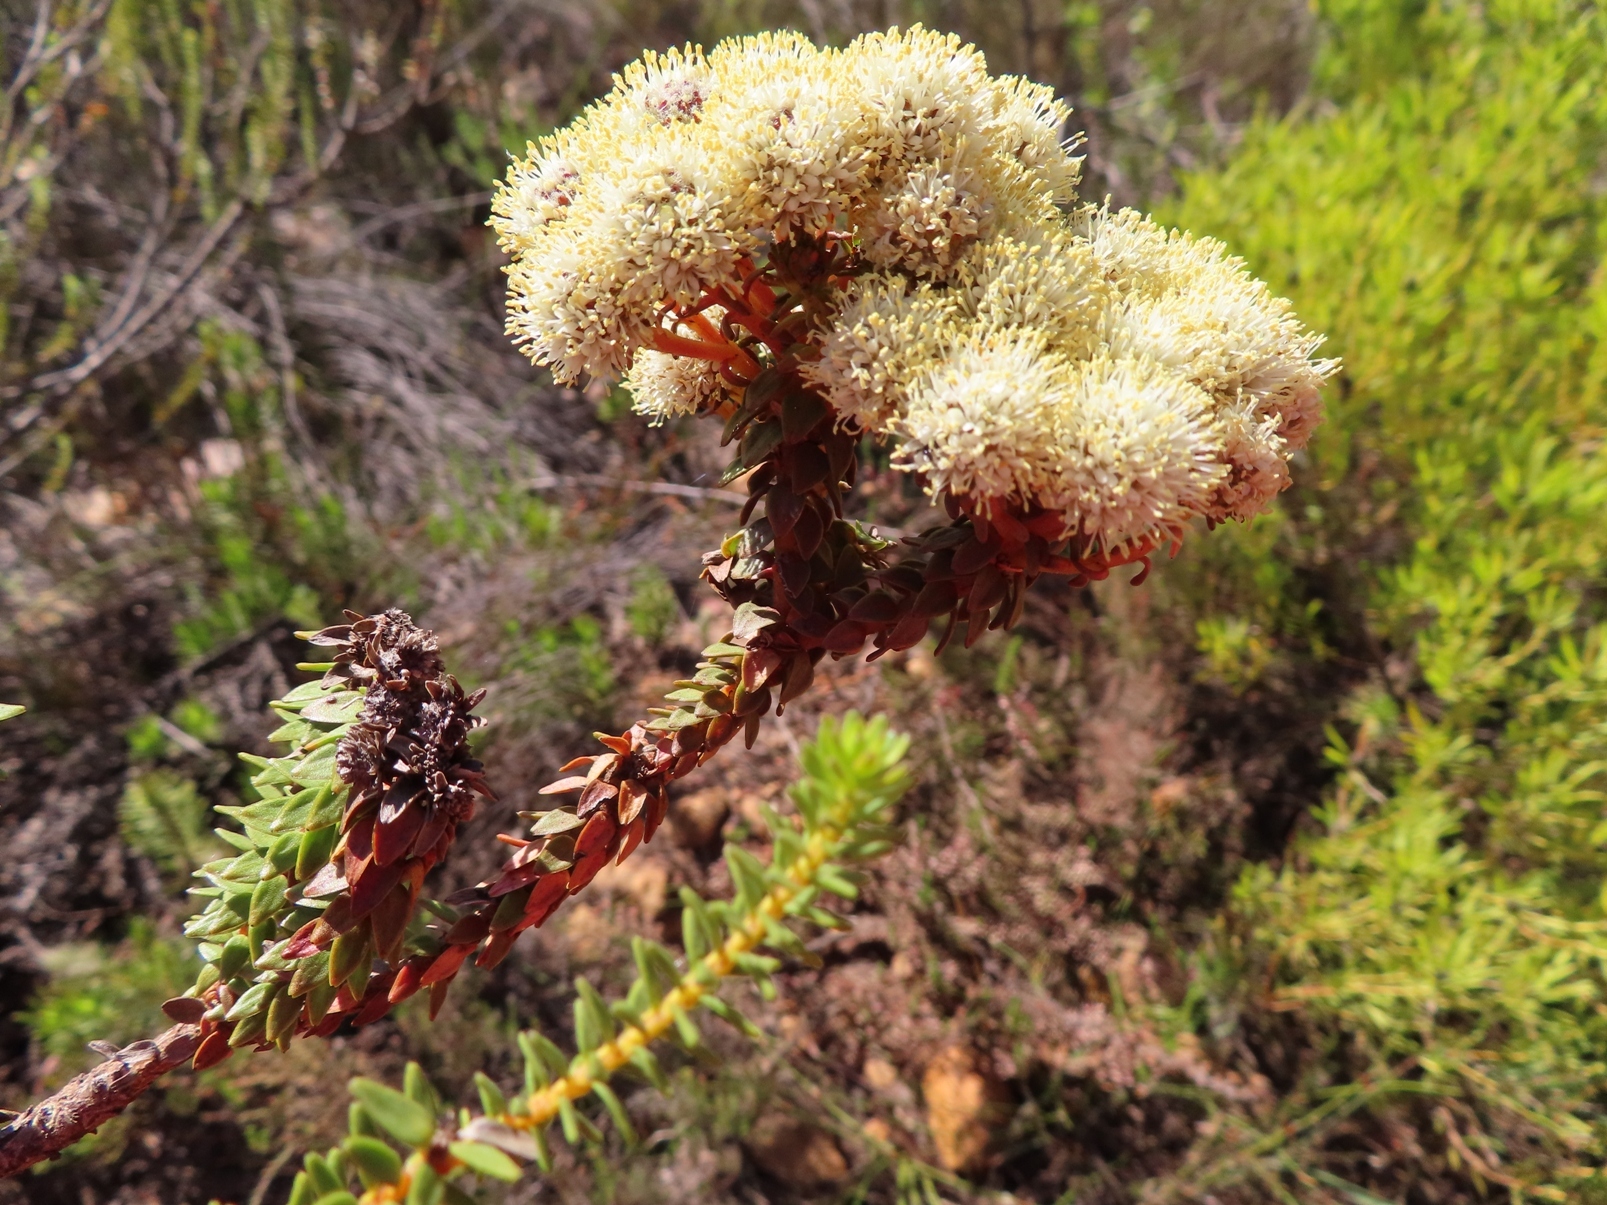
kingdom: Plantae
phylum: Tracheophyta
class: Magnoliopsida
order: Bruniales
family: Bruniaceae
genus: Berzelia
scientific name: Berzelia cordifolia
